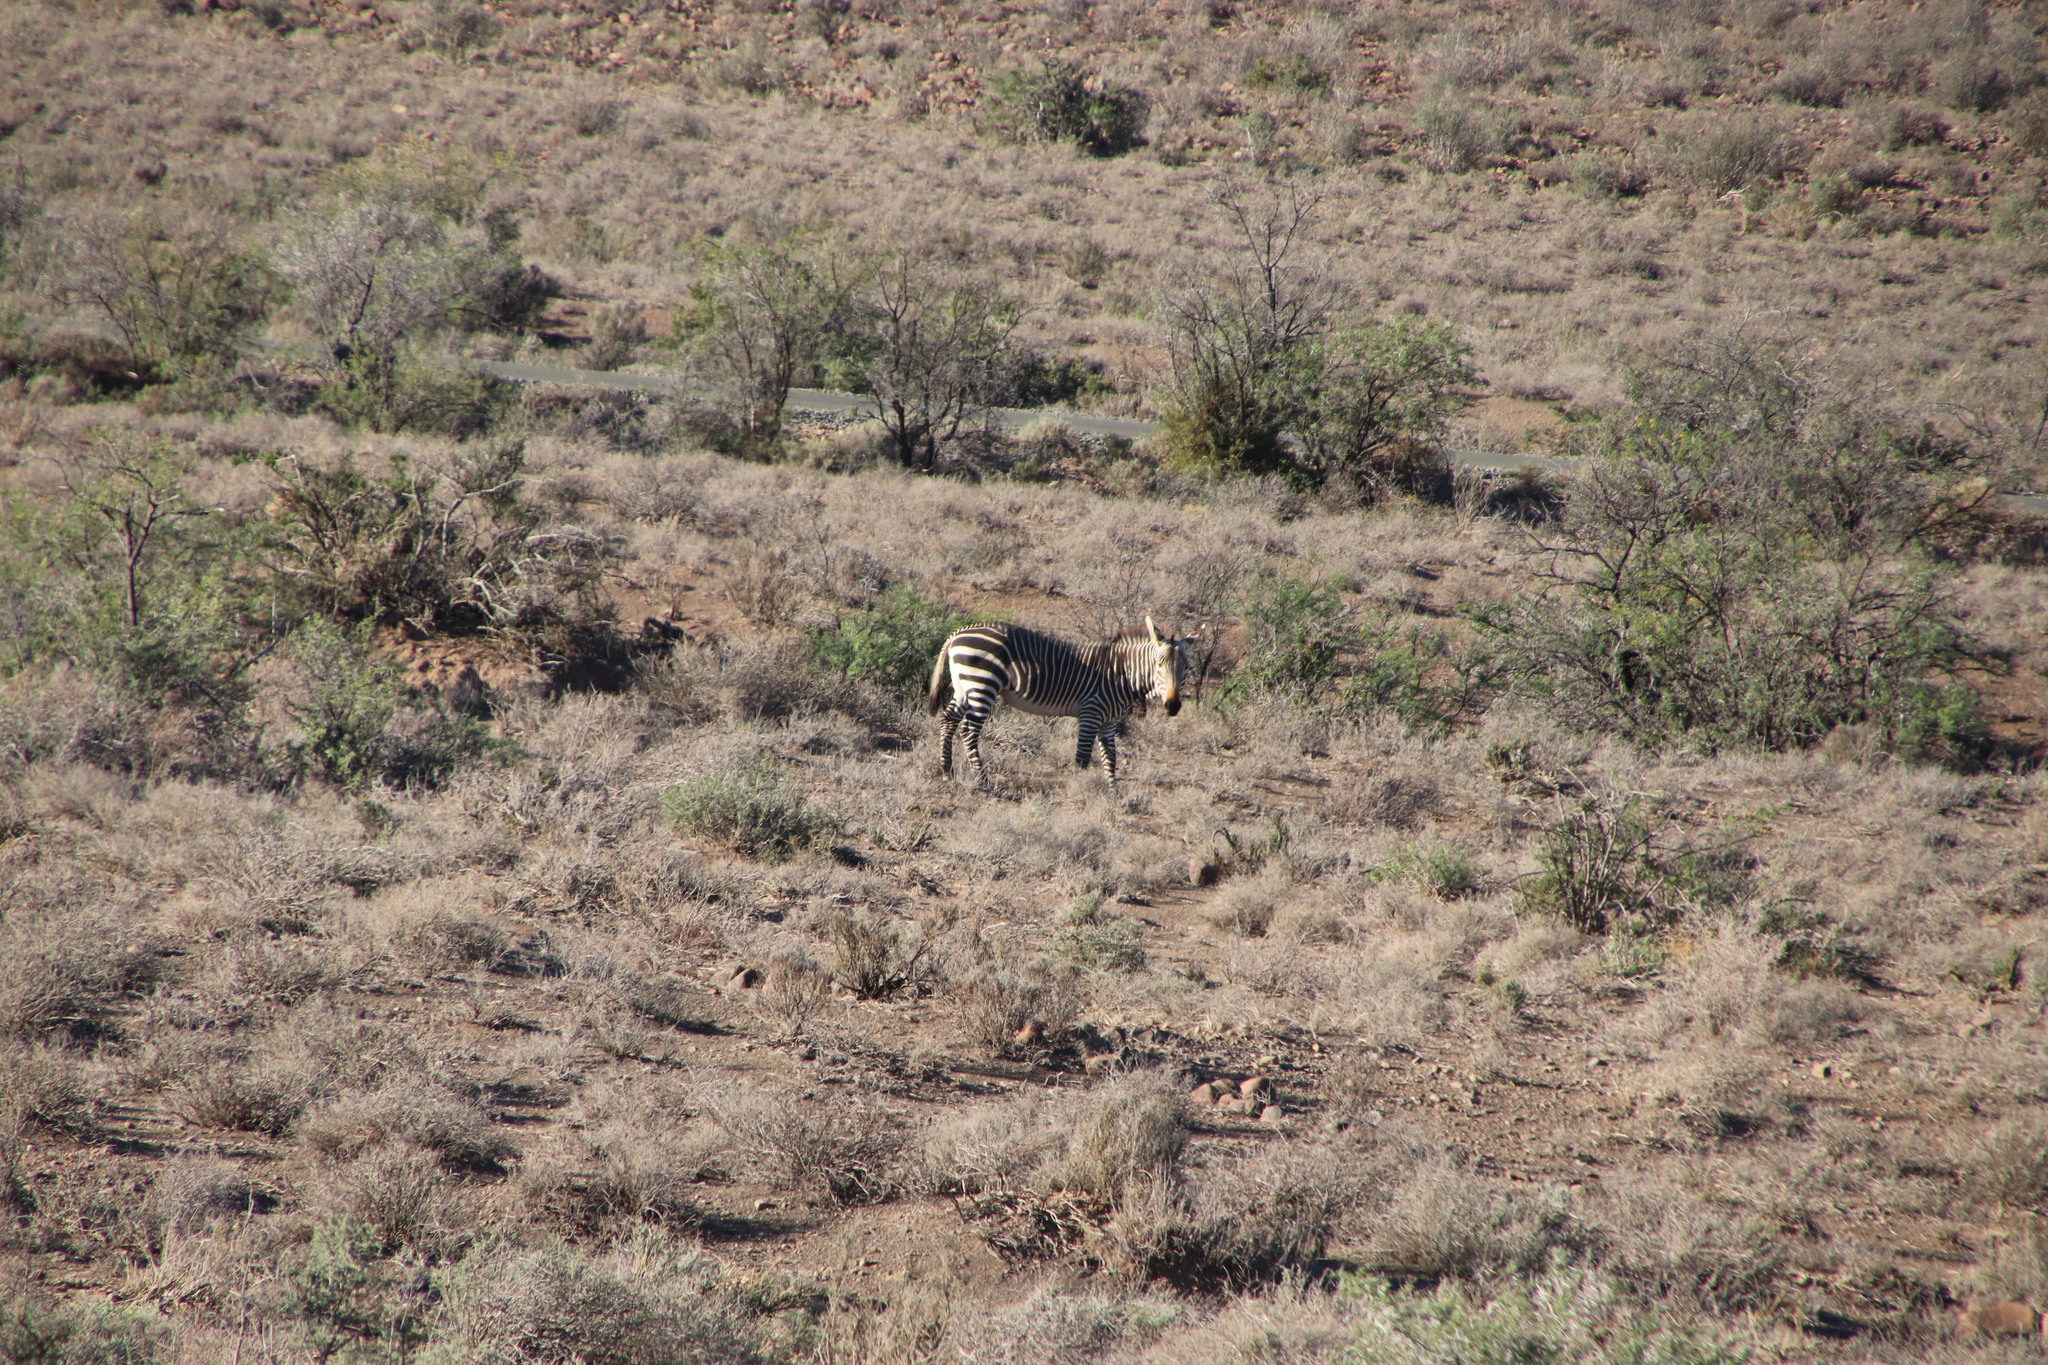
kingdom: Animalia
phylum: Chordata
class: Mammalia
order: Perissodactyla
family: Equidae
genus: Equus
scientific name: Equus zebra
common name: Mountain zebra
